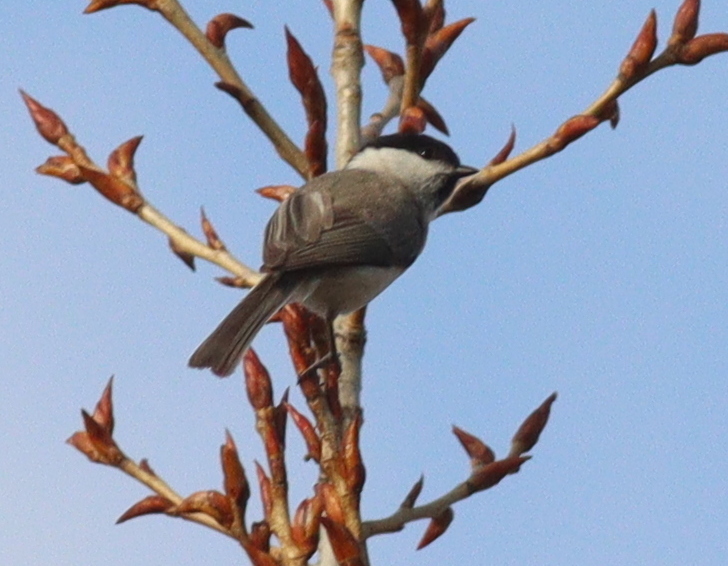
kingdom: Animalia
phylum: Chordata
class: Aves
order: Passeriformes
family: Paridae
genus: Poecile
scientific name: Poecile palustris
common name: Marsh tit
